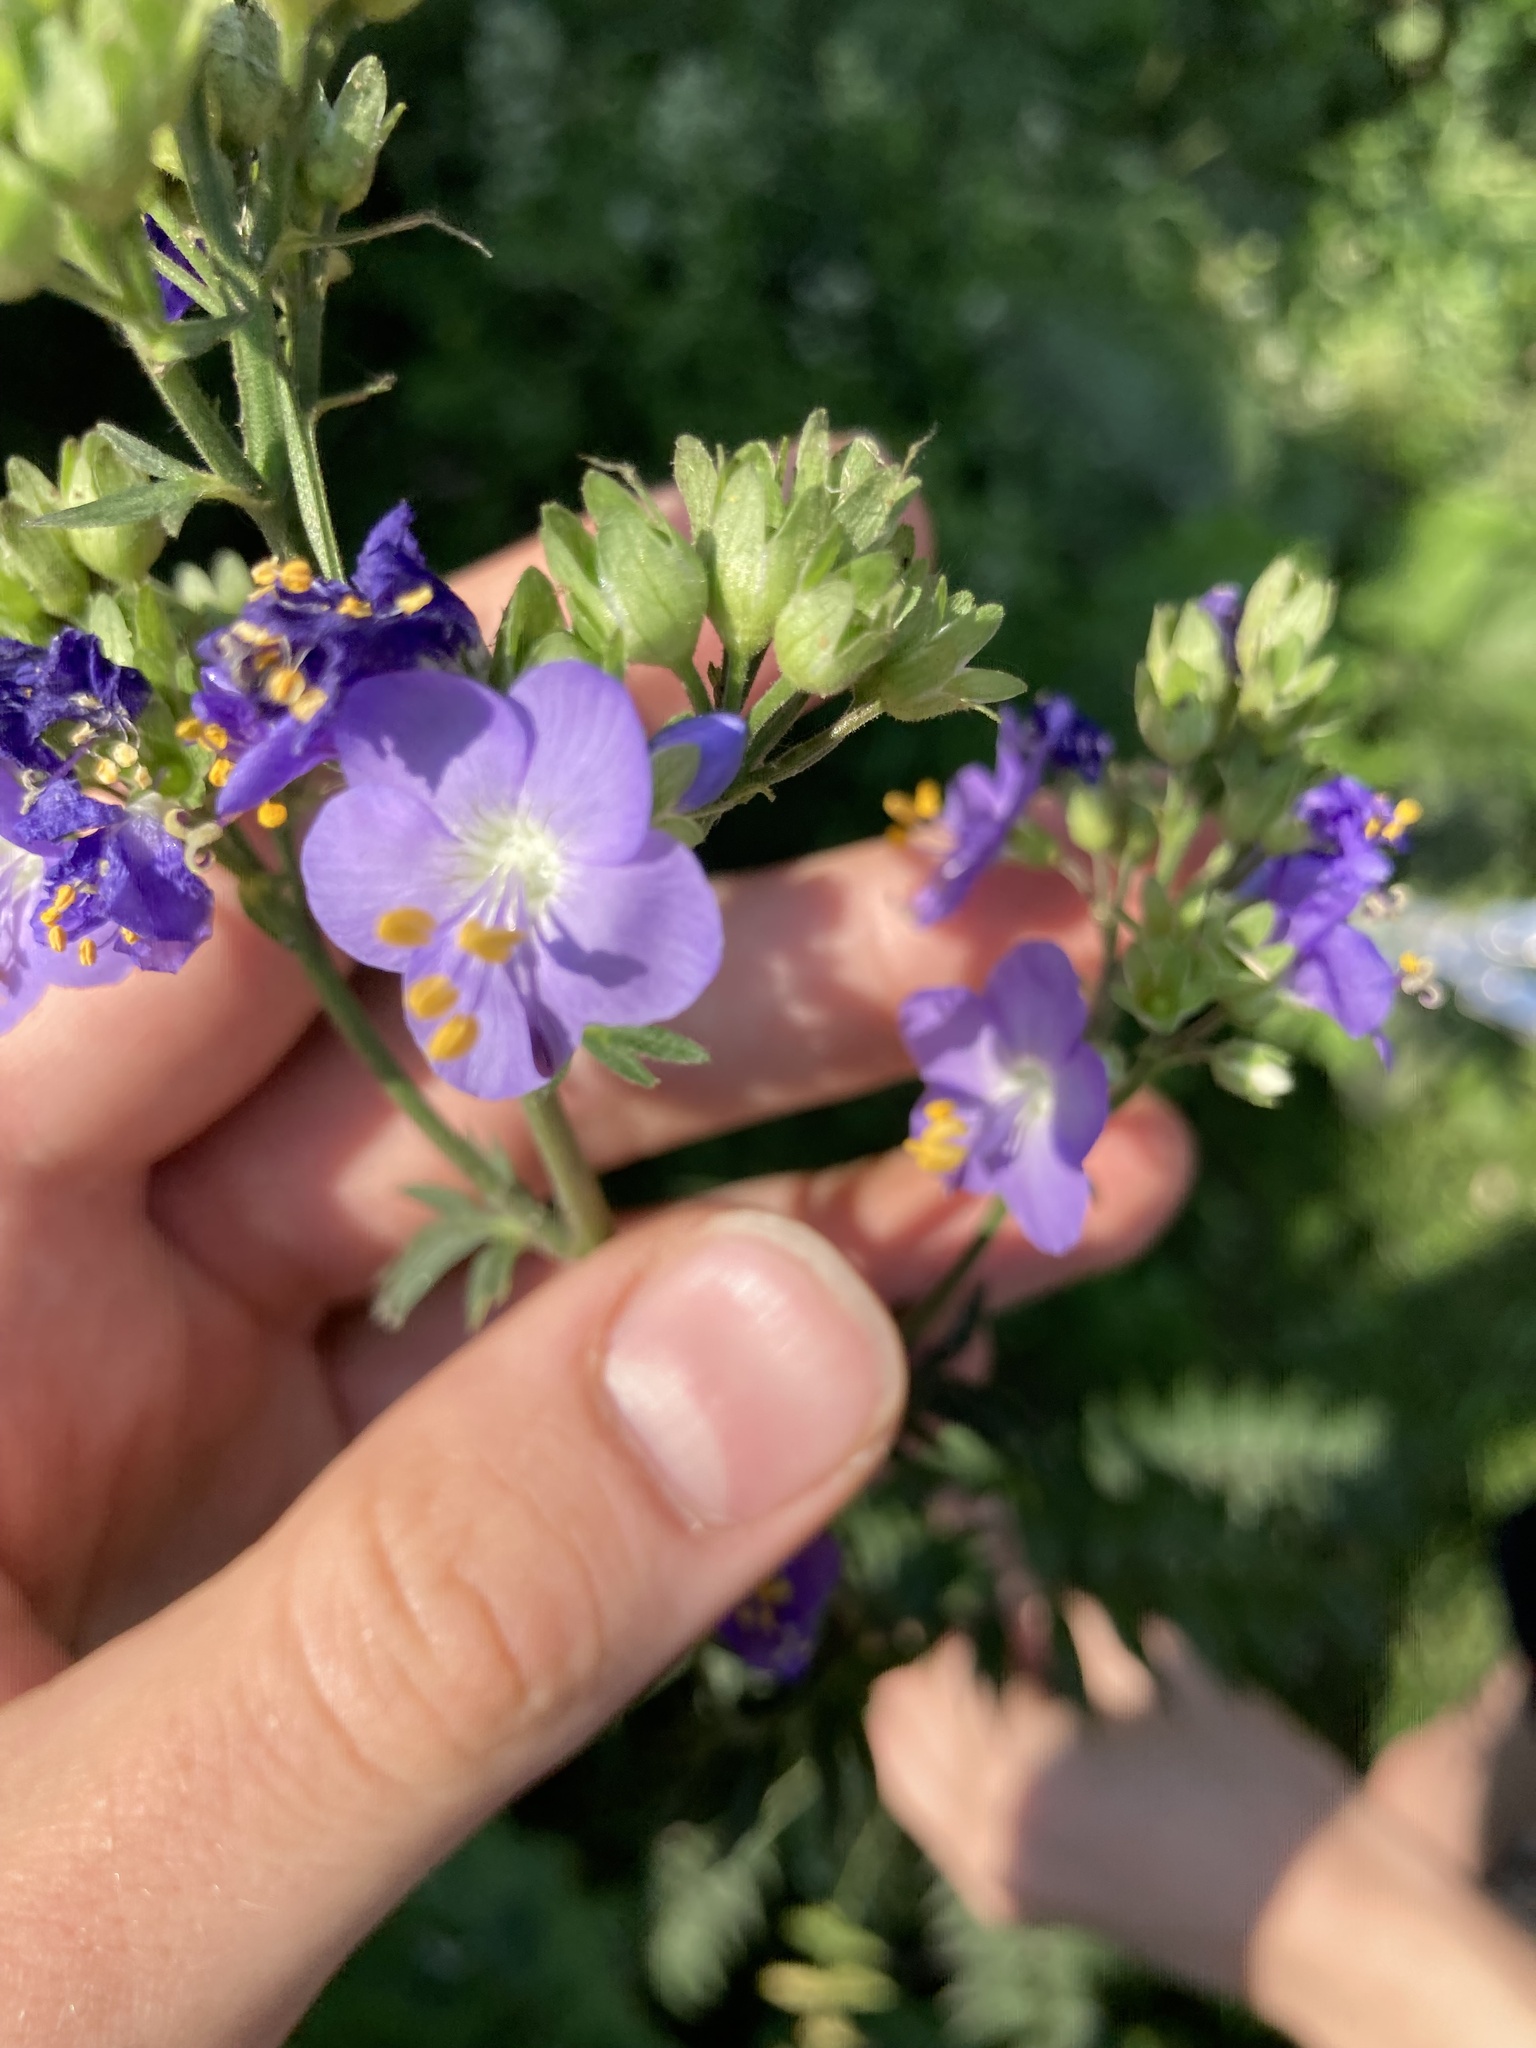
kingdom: Plantae
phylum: Tracheophyta
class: Magnoliopsida
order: Ericales
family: Polemoniaceae
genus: Polemonium
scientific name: Polemonium caeruleum
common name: Jacob's-ladder
